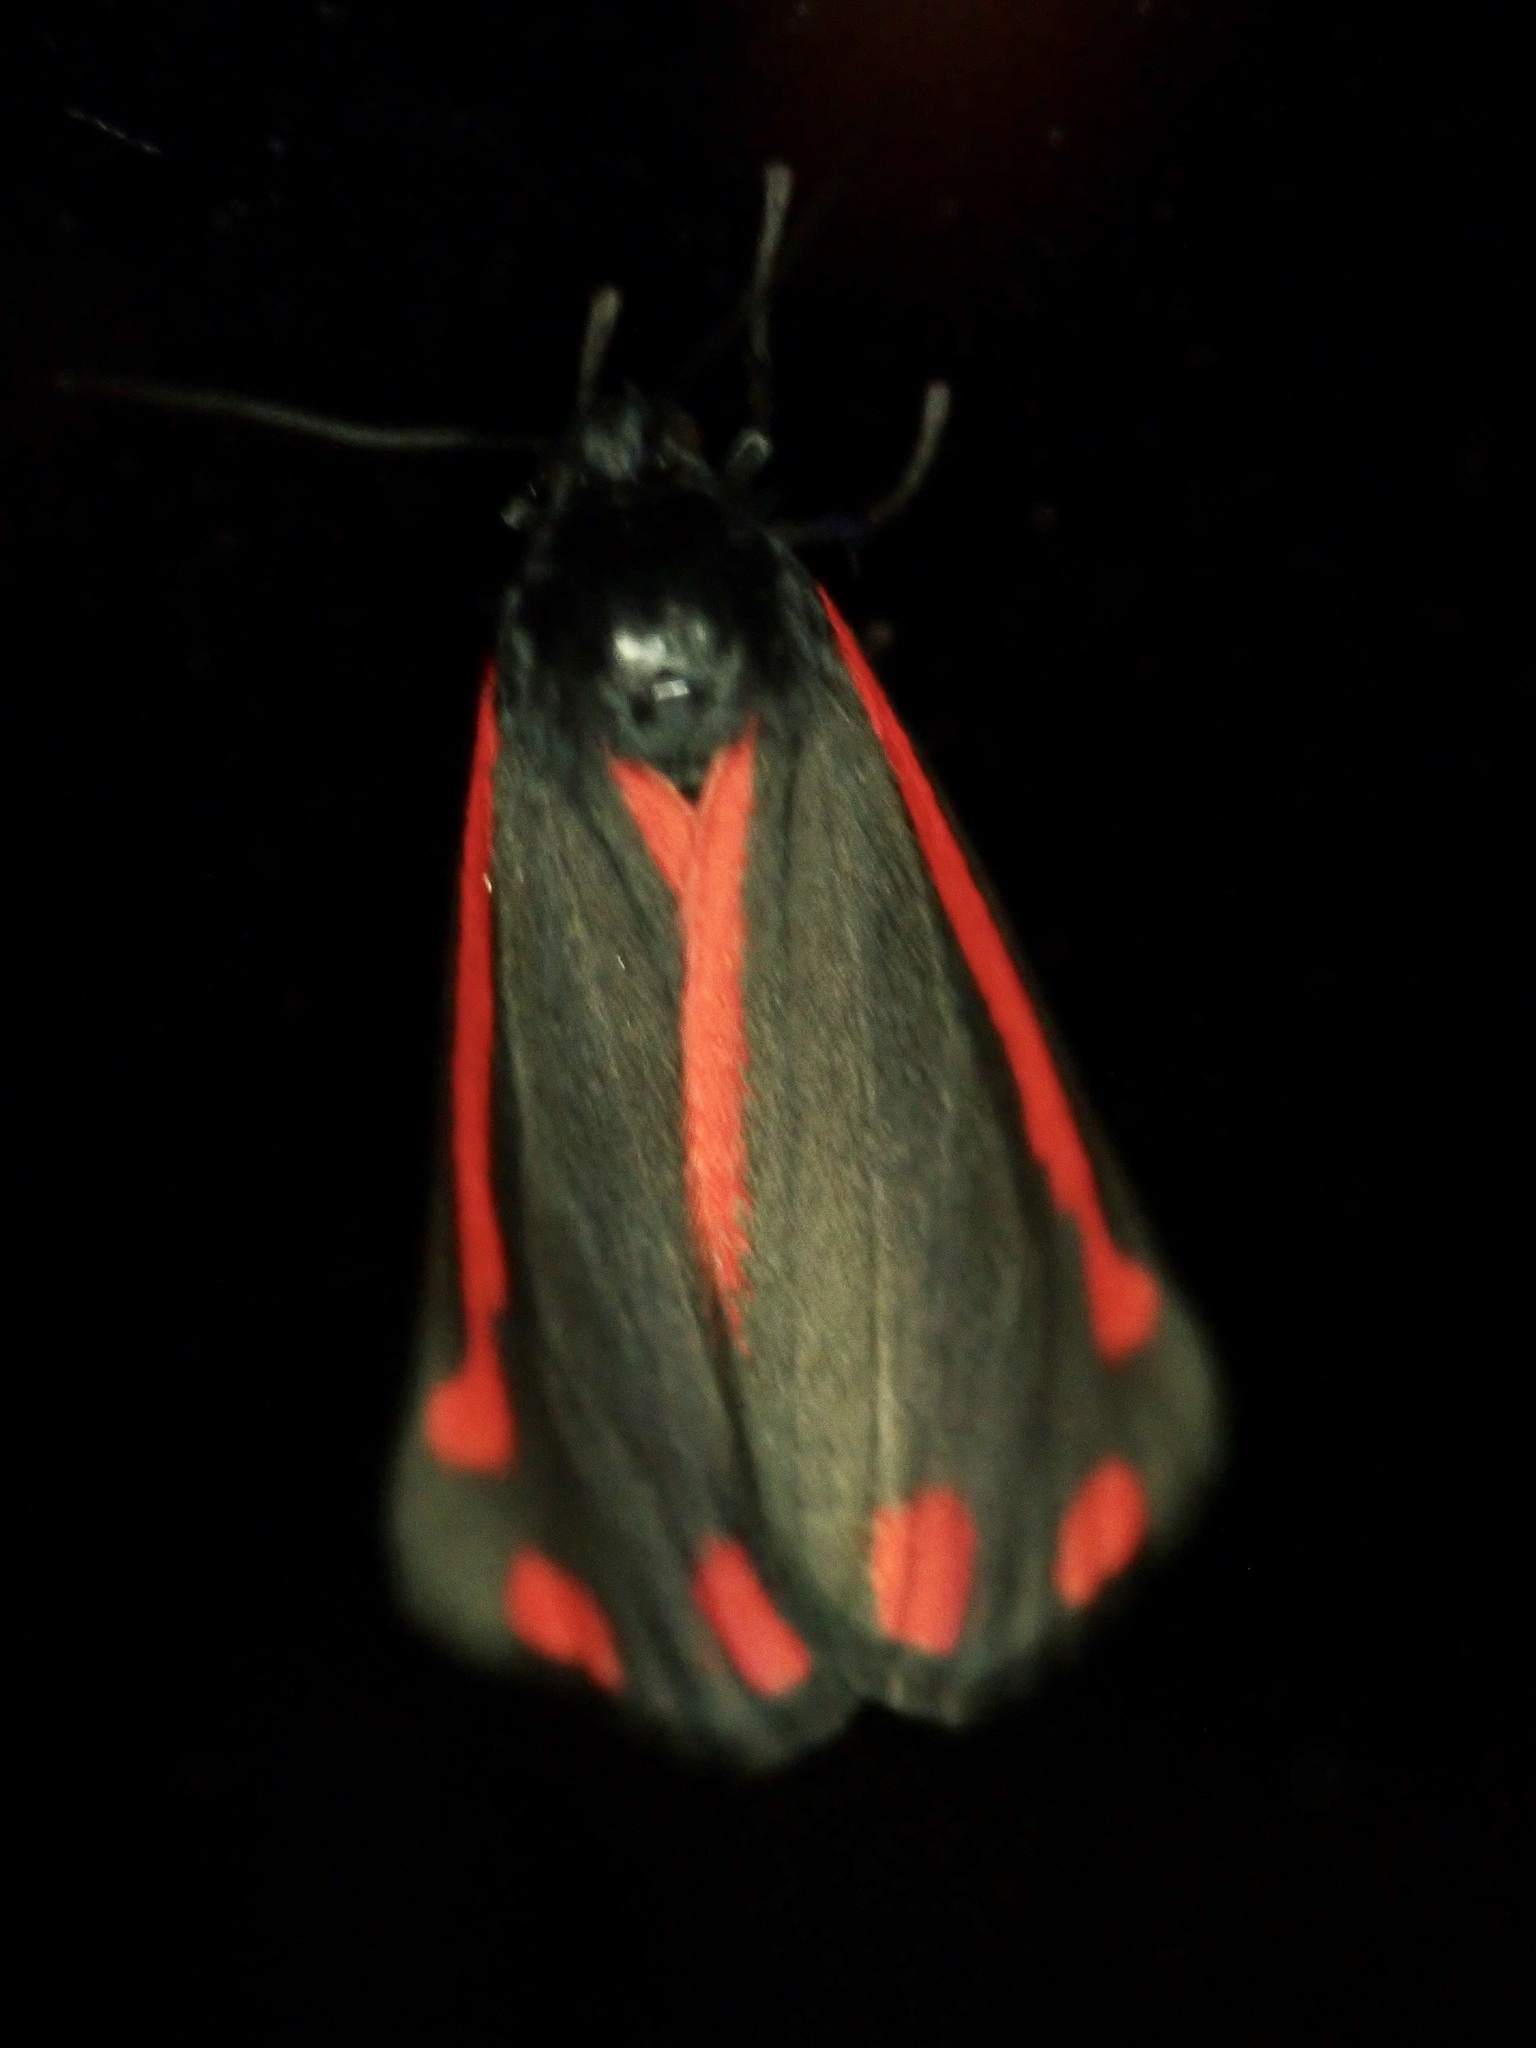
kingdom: Animalia
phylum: Arthropoda
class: Insecta
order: Lepidoptera
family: Erebidae
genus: Tyria
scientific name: Tyria jacobaeae
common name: Cinnabar
